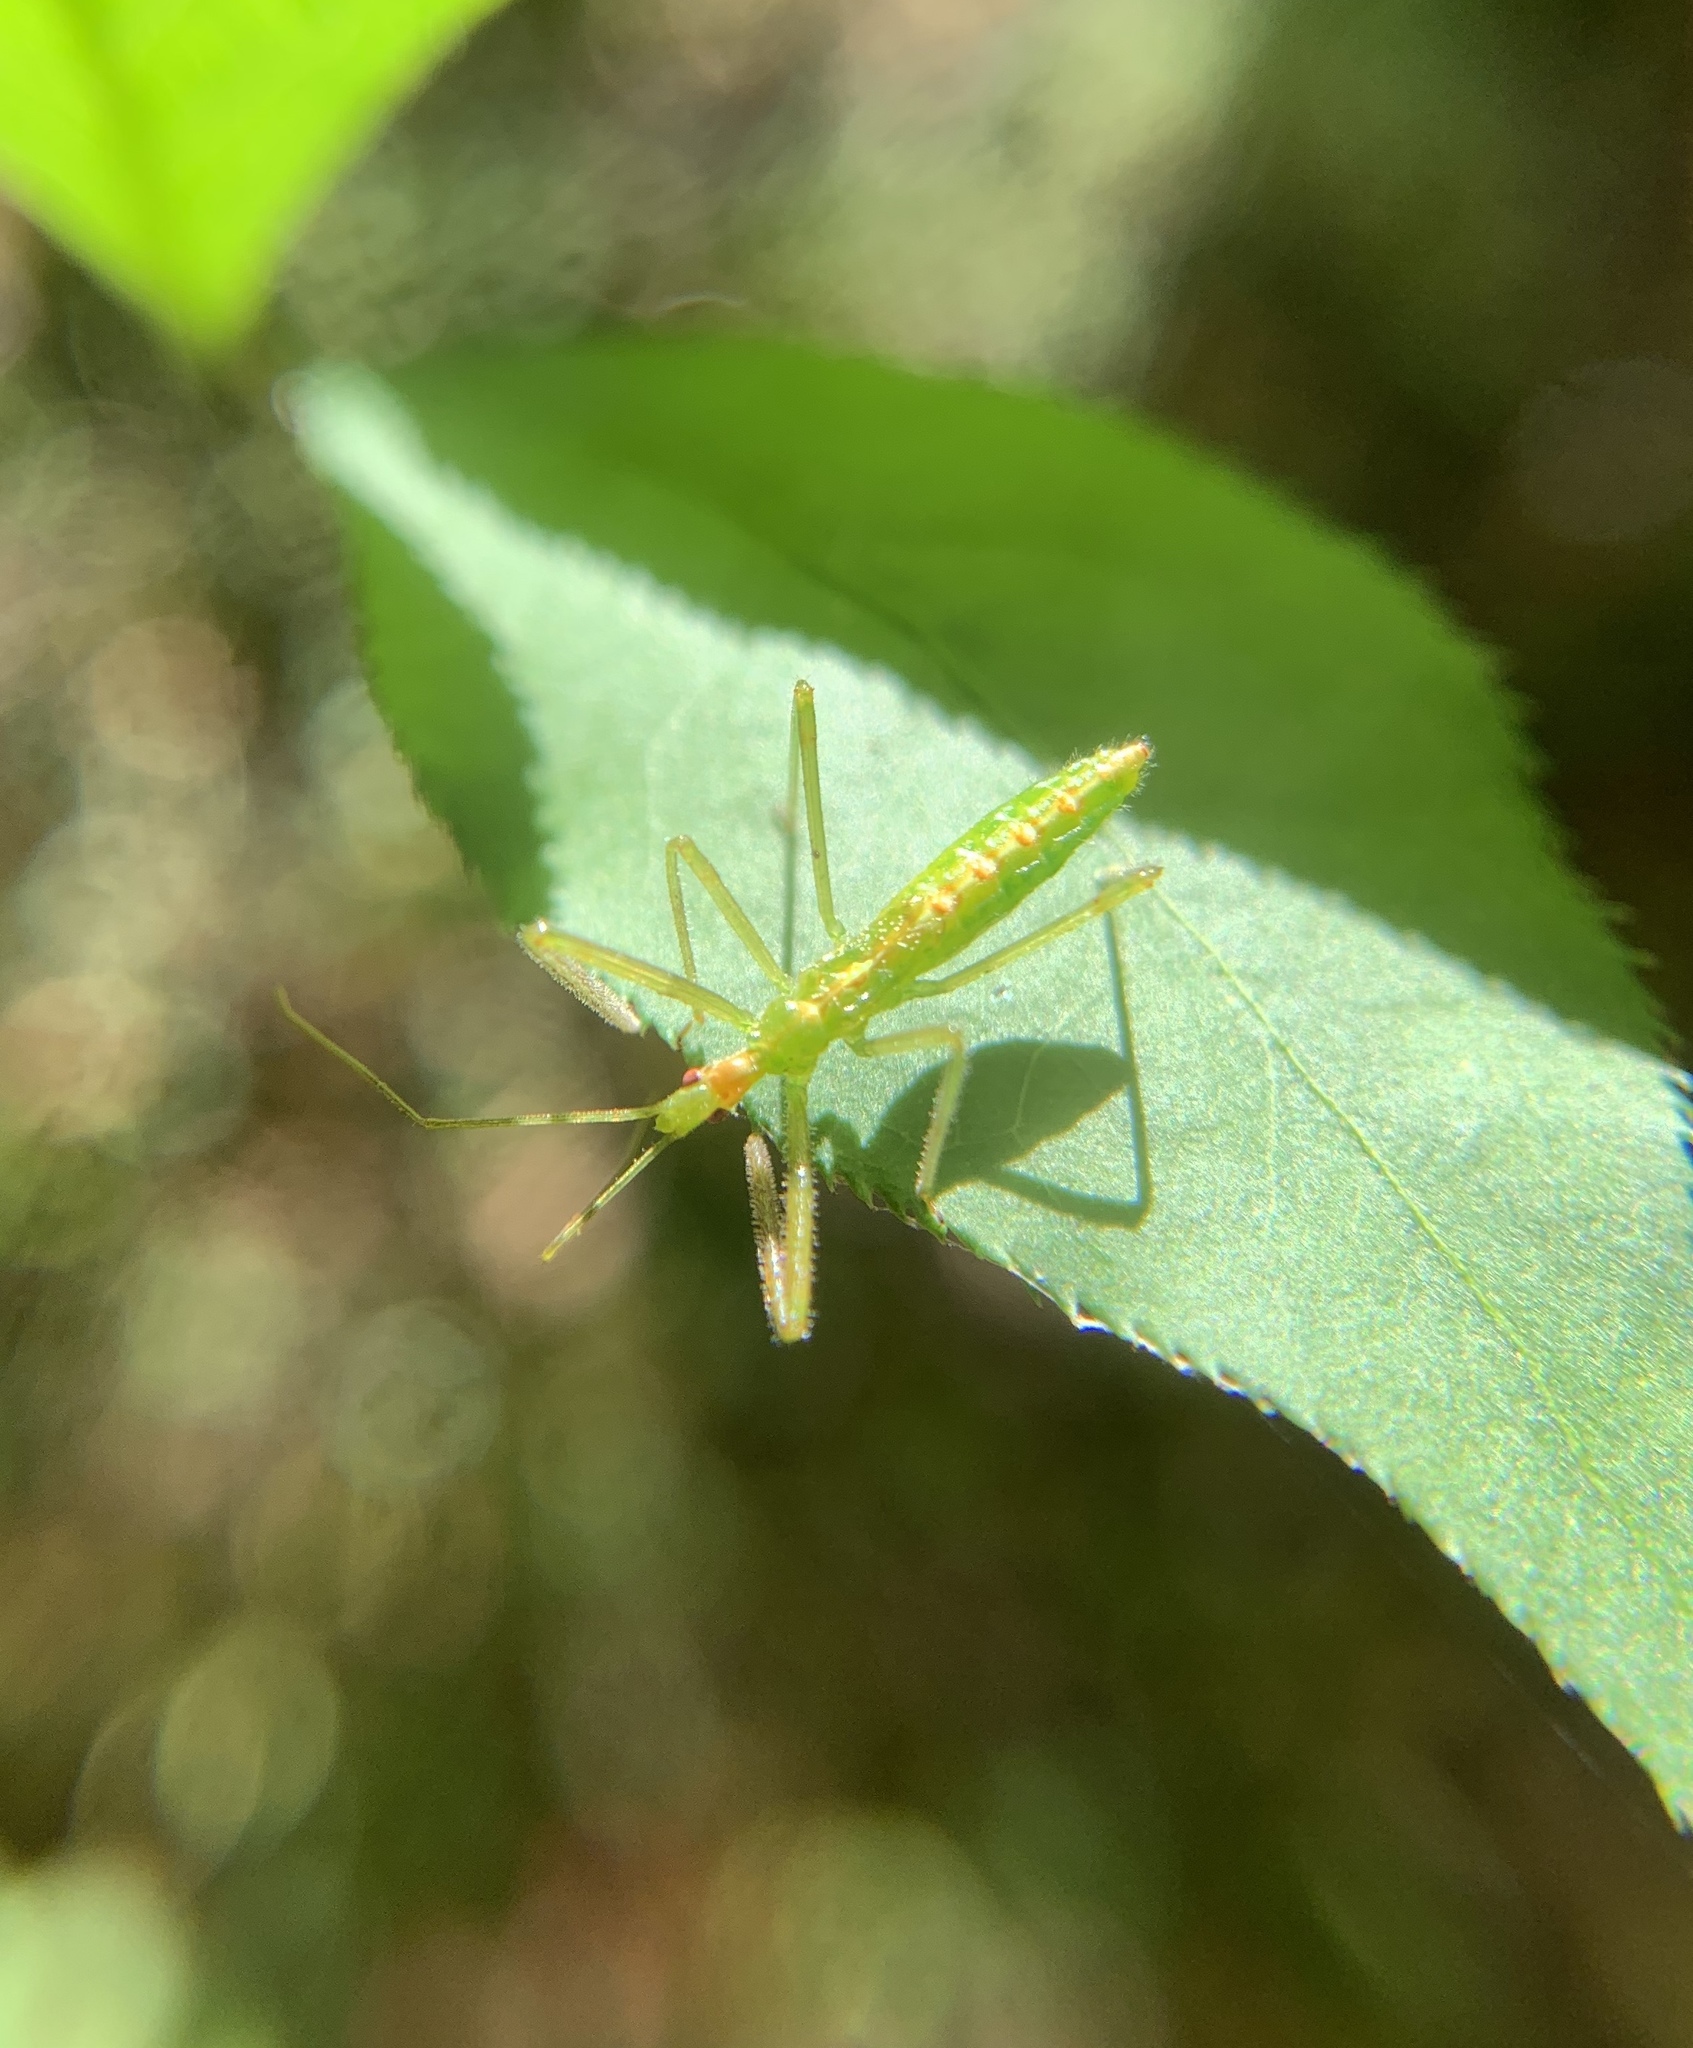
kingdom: Animalia
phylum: Arthropoda
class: Insecta
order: Hemiptera
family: Reduviidae
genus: Zelus
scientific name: Zelus luridus
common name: Pale green assassin bug
